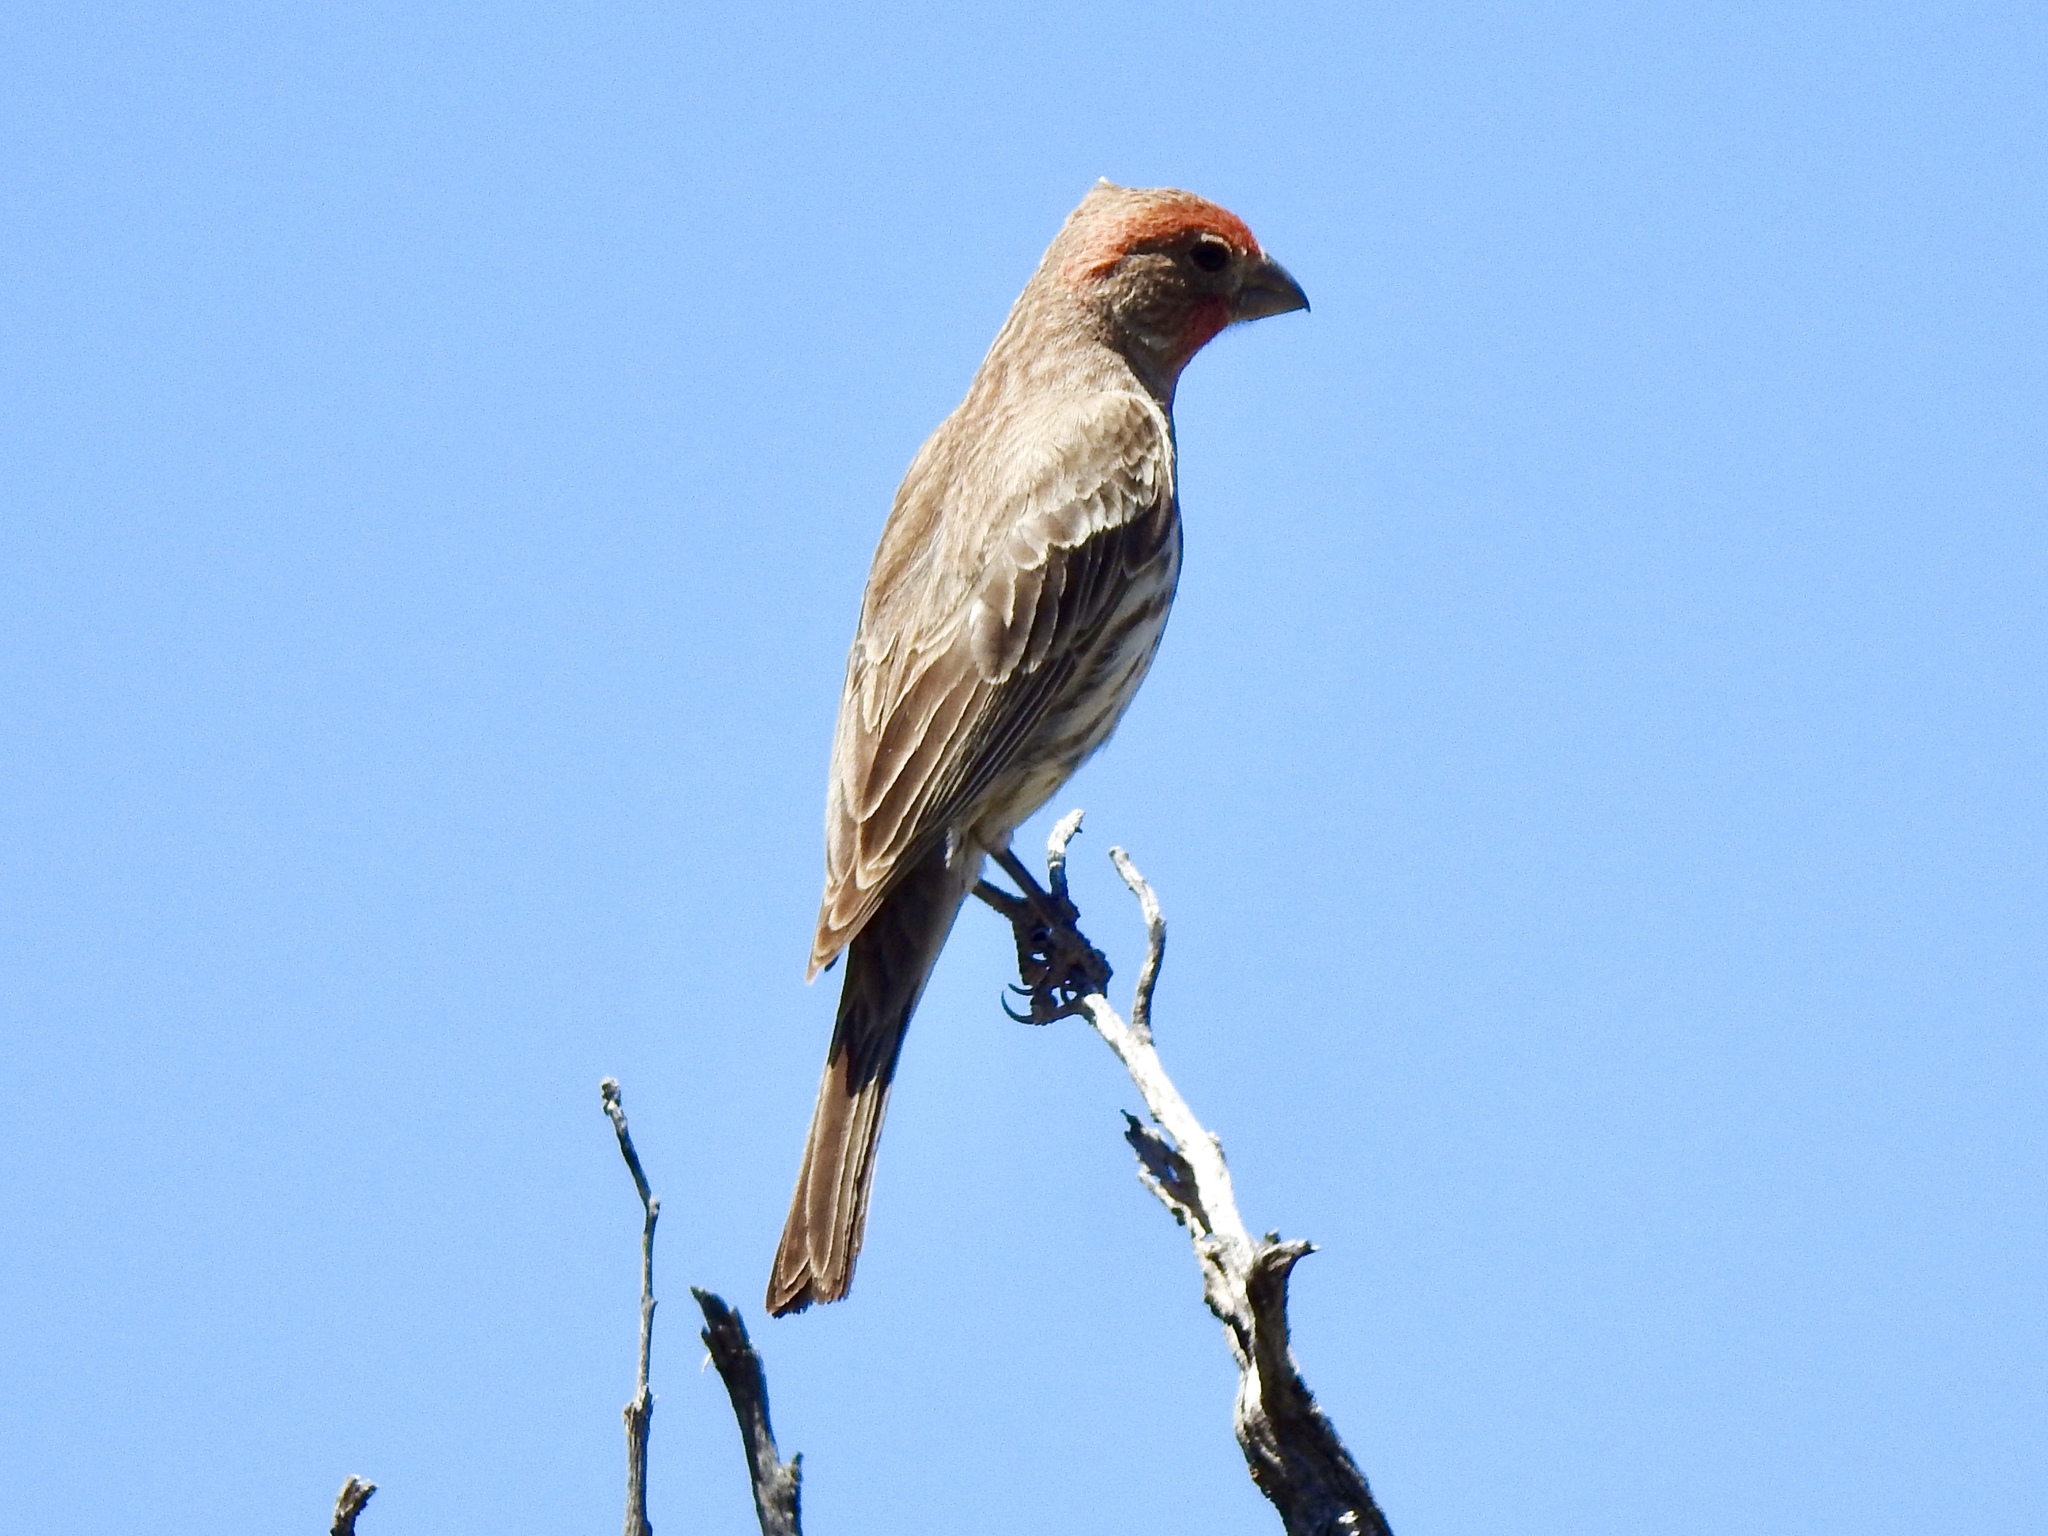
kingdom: Animalia
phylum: Chordata
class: Aves
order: Passeriformes
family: Fringillidae
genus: Haemorhous
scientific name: Haemorhous mexicanus
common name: House finch
